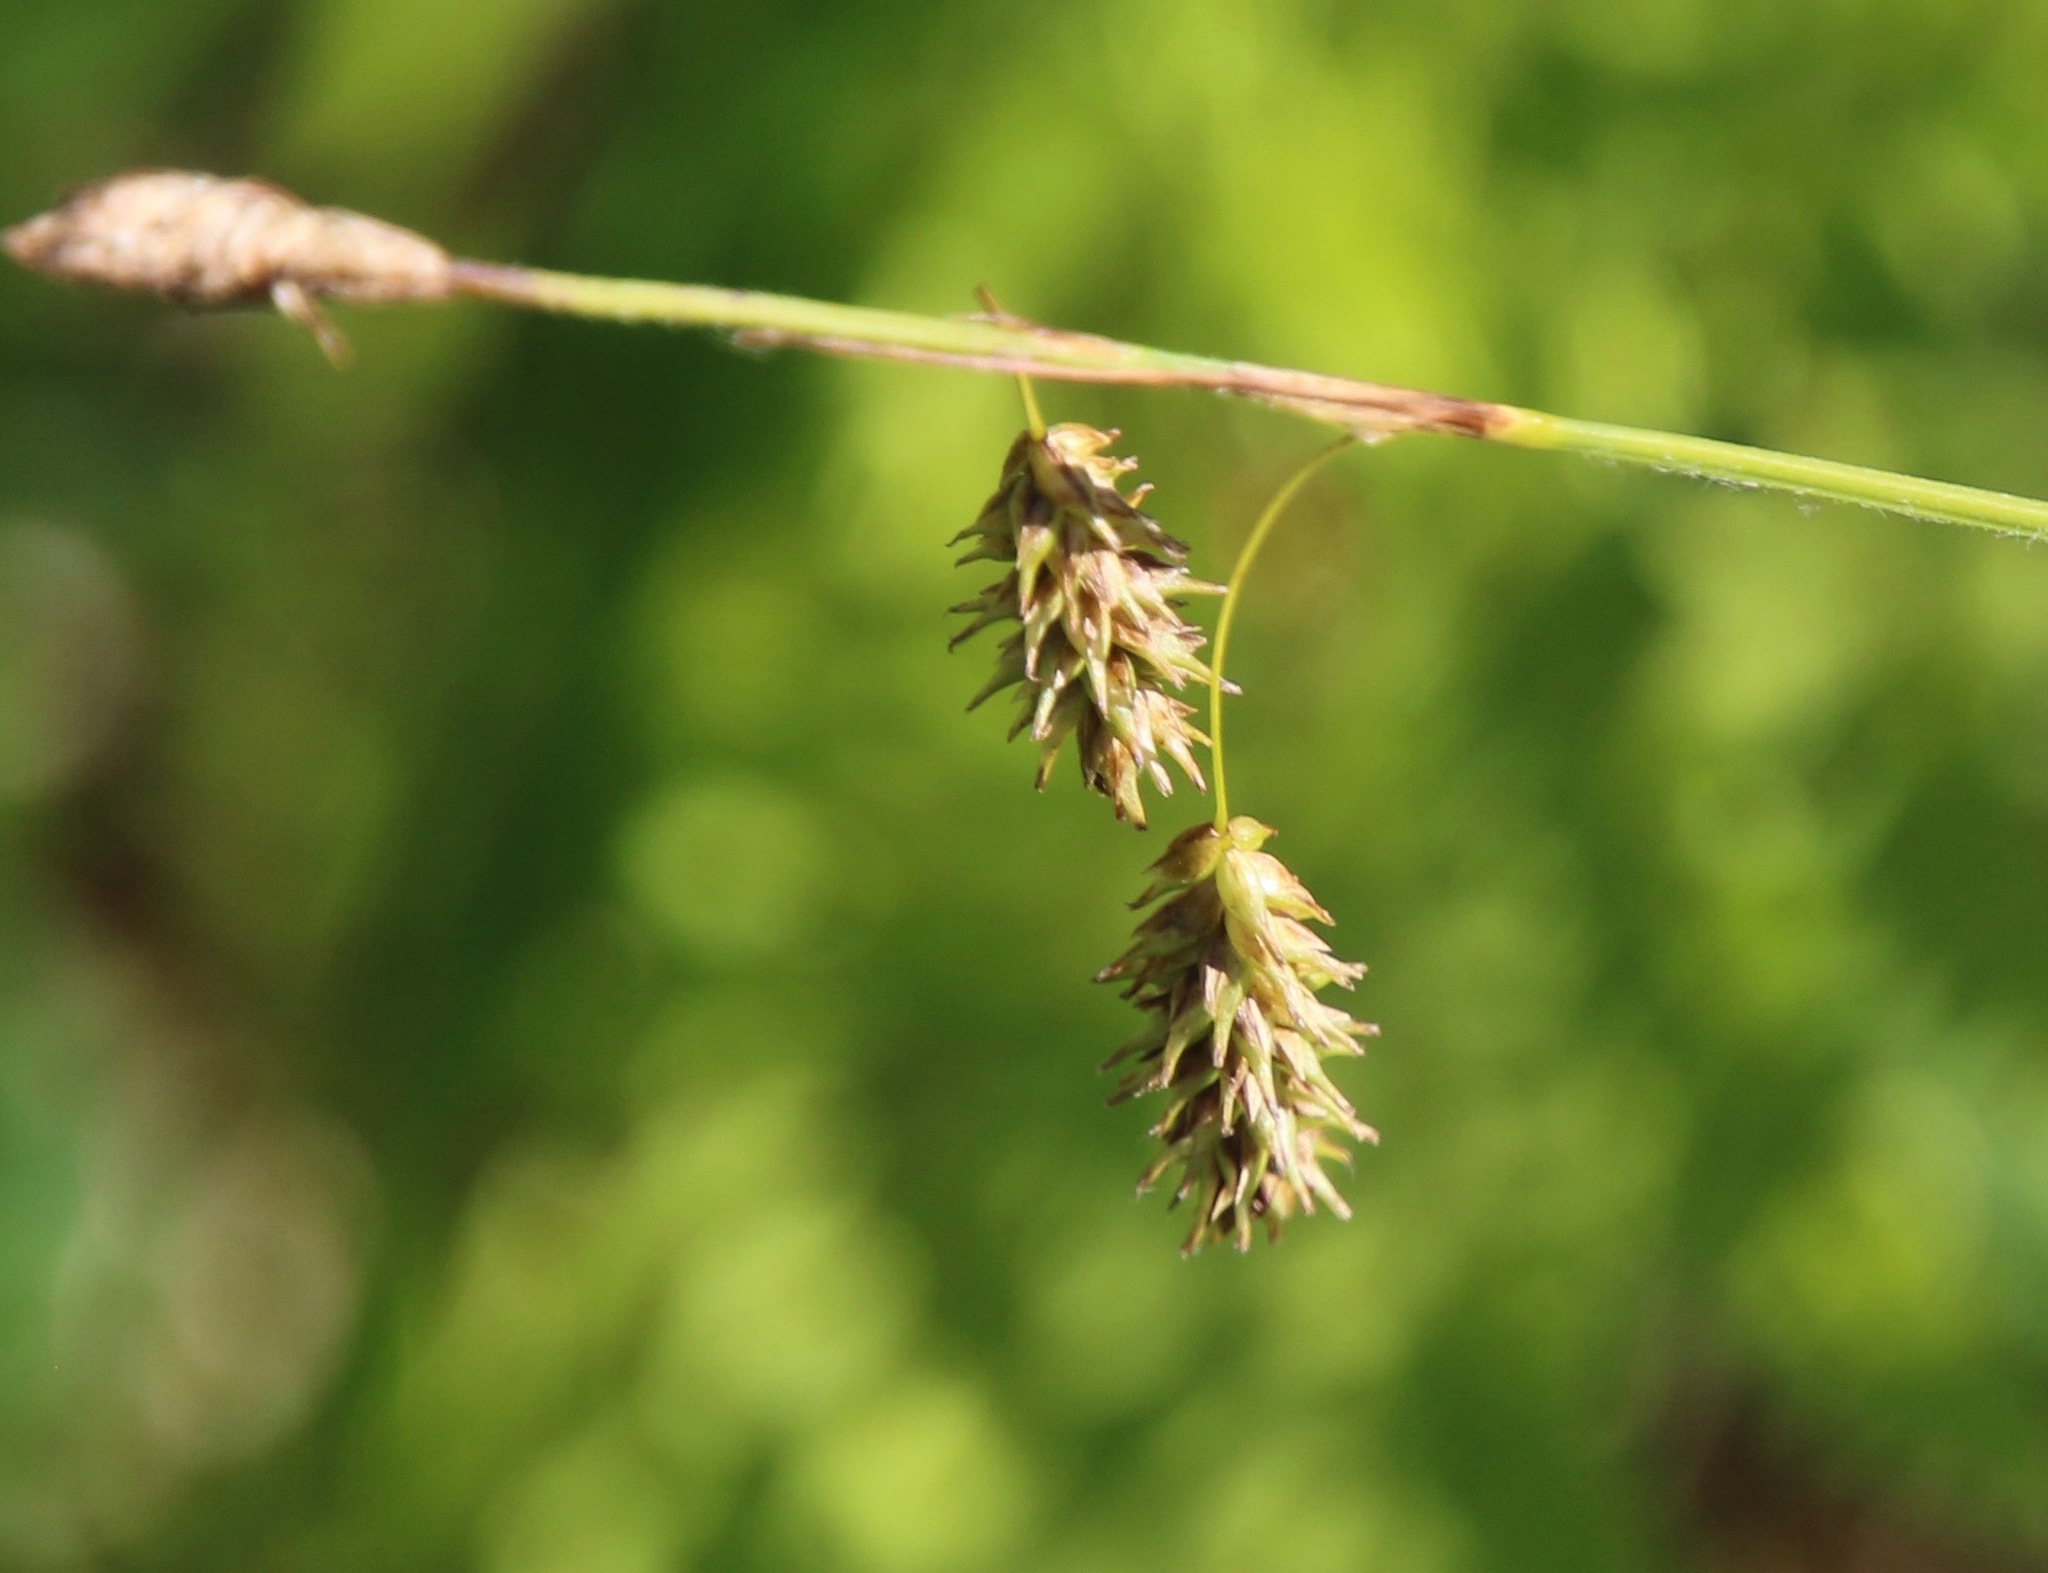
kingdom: Plantae
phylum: Tracheophyta
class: Liliopsida
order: Poales
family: Cyperaceae
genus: Carex
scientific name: Carex castanea
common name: Chestnut sedge
